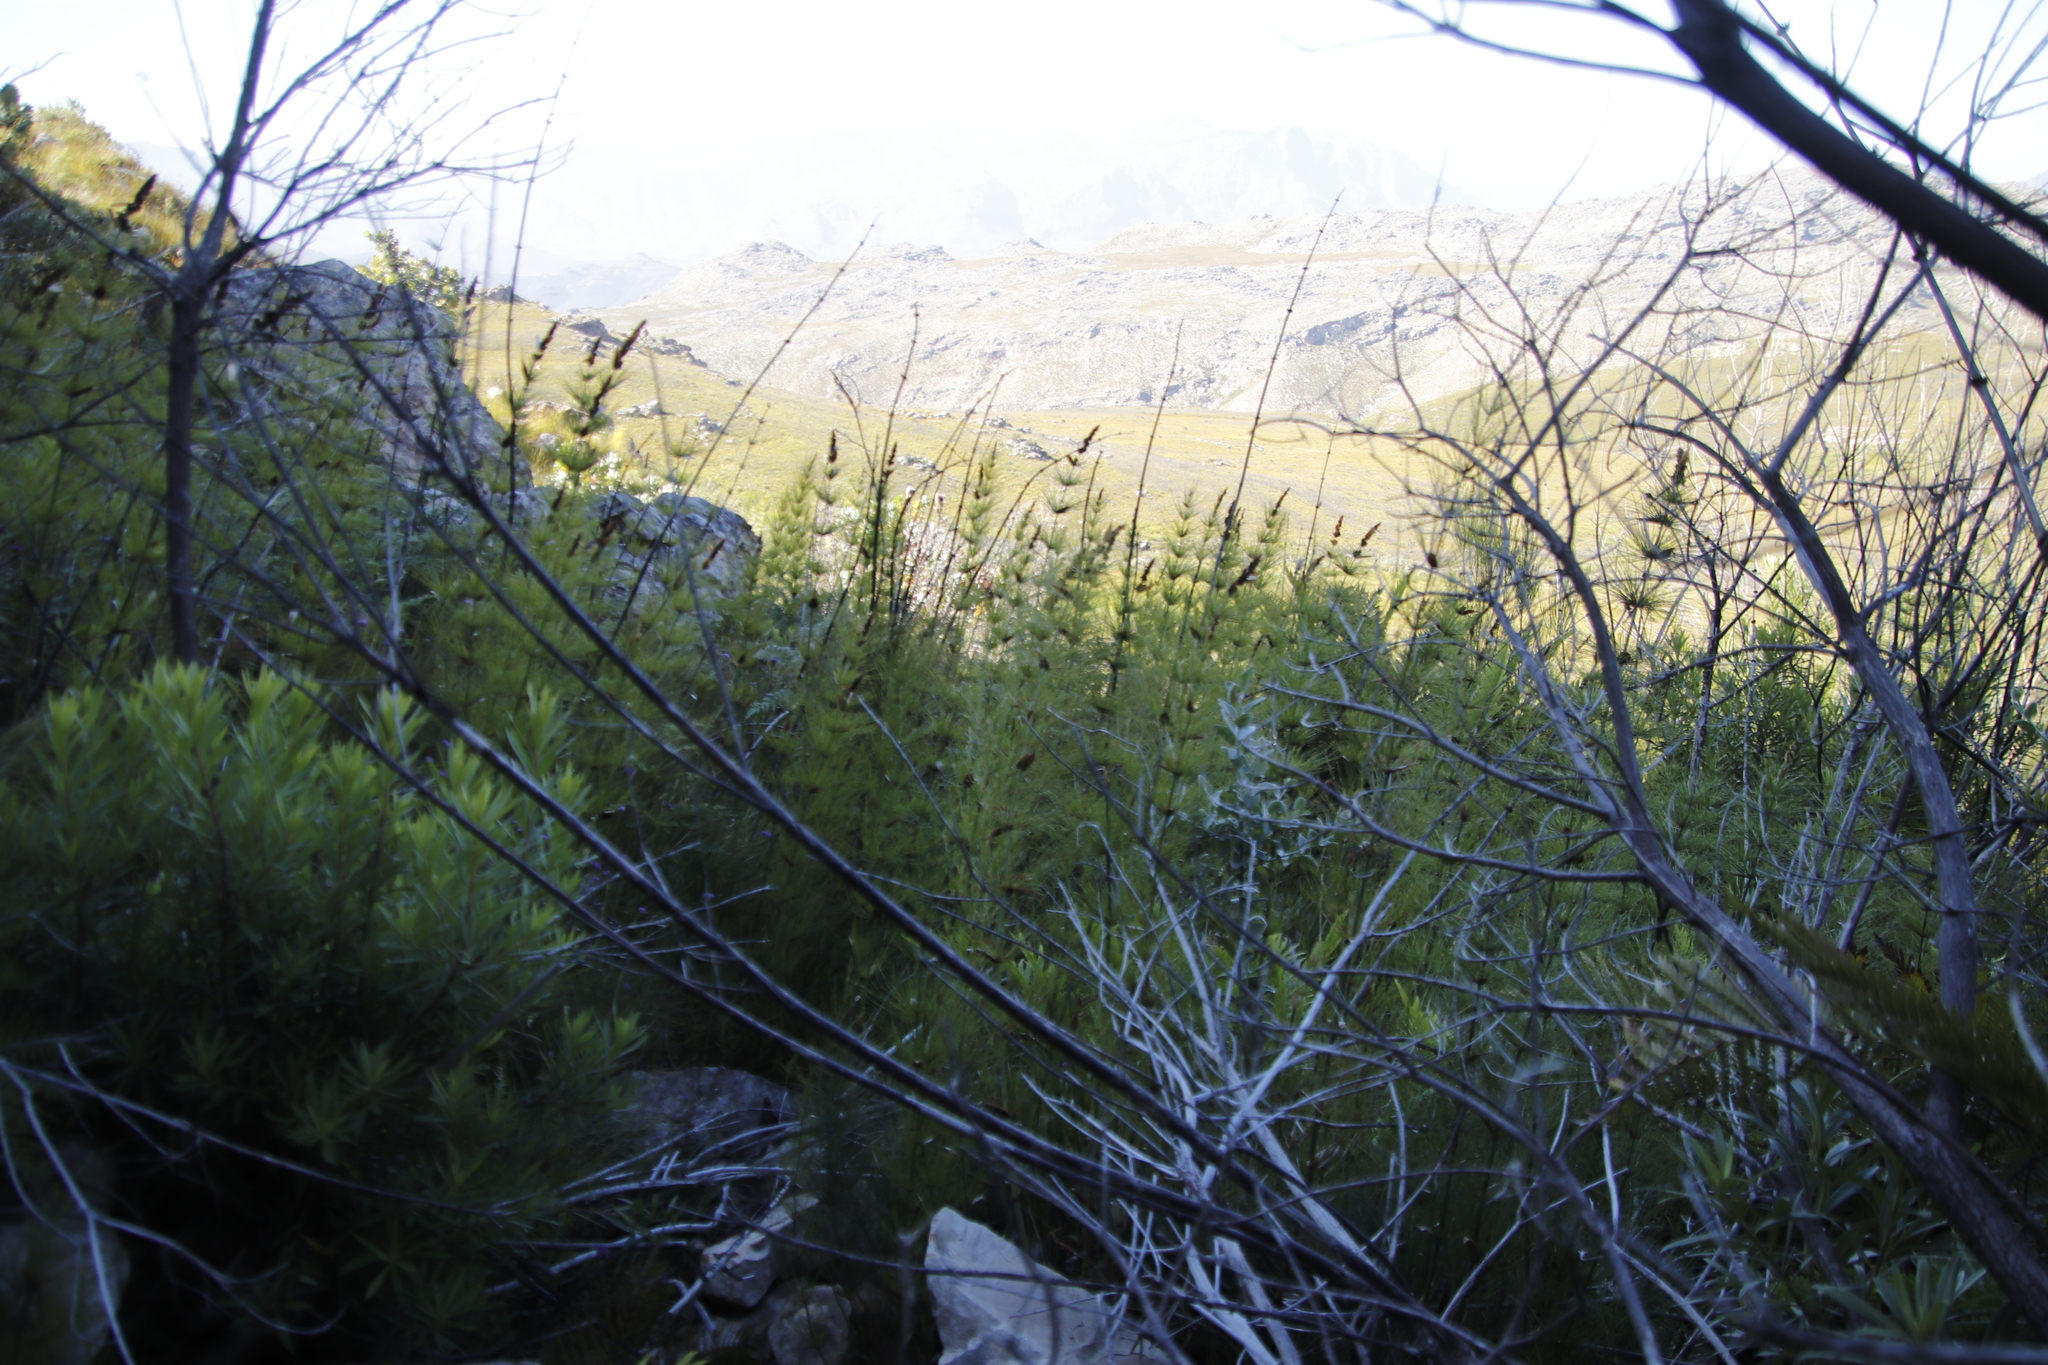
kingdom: Plantae
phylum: Tracheophyta
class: Liliopsida
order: Poales
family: Restionaceae
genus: Elegia
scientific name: Elegia capensis
